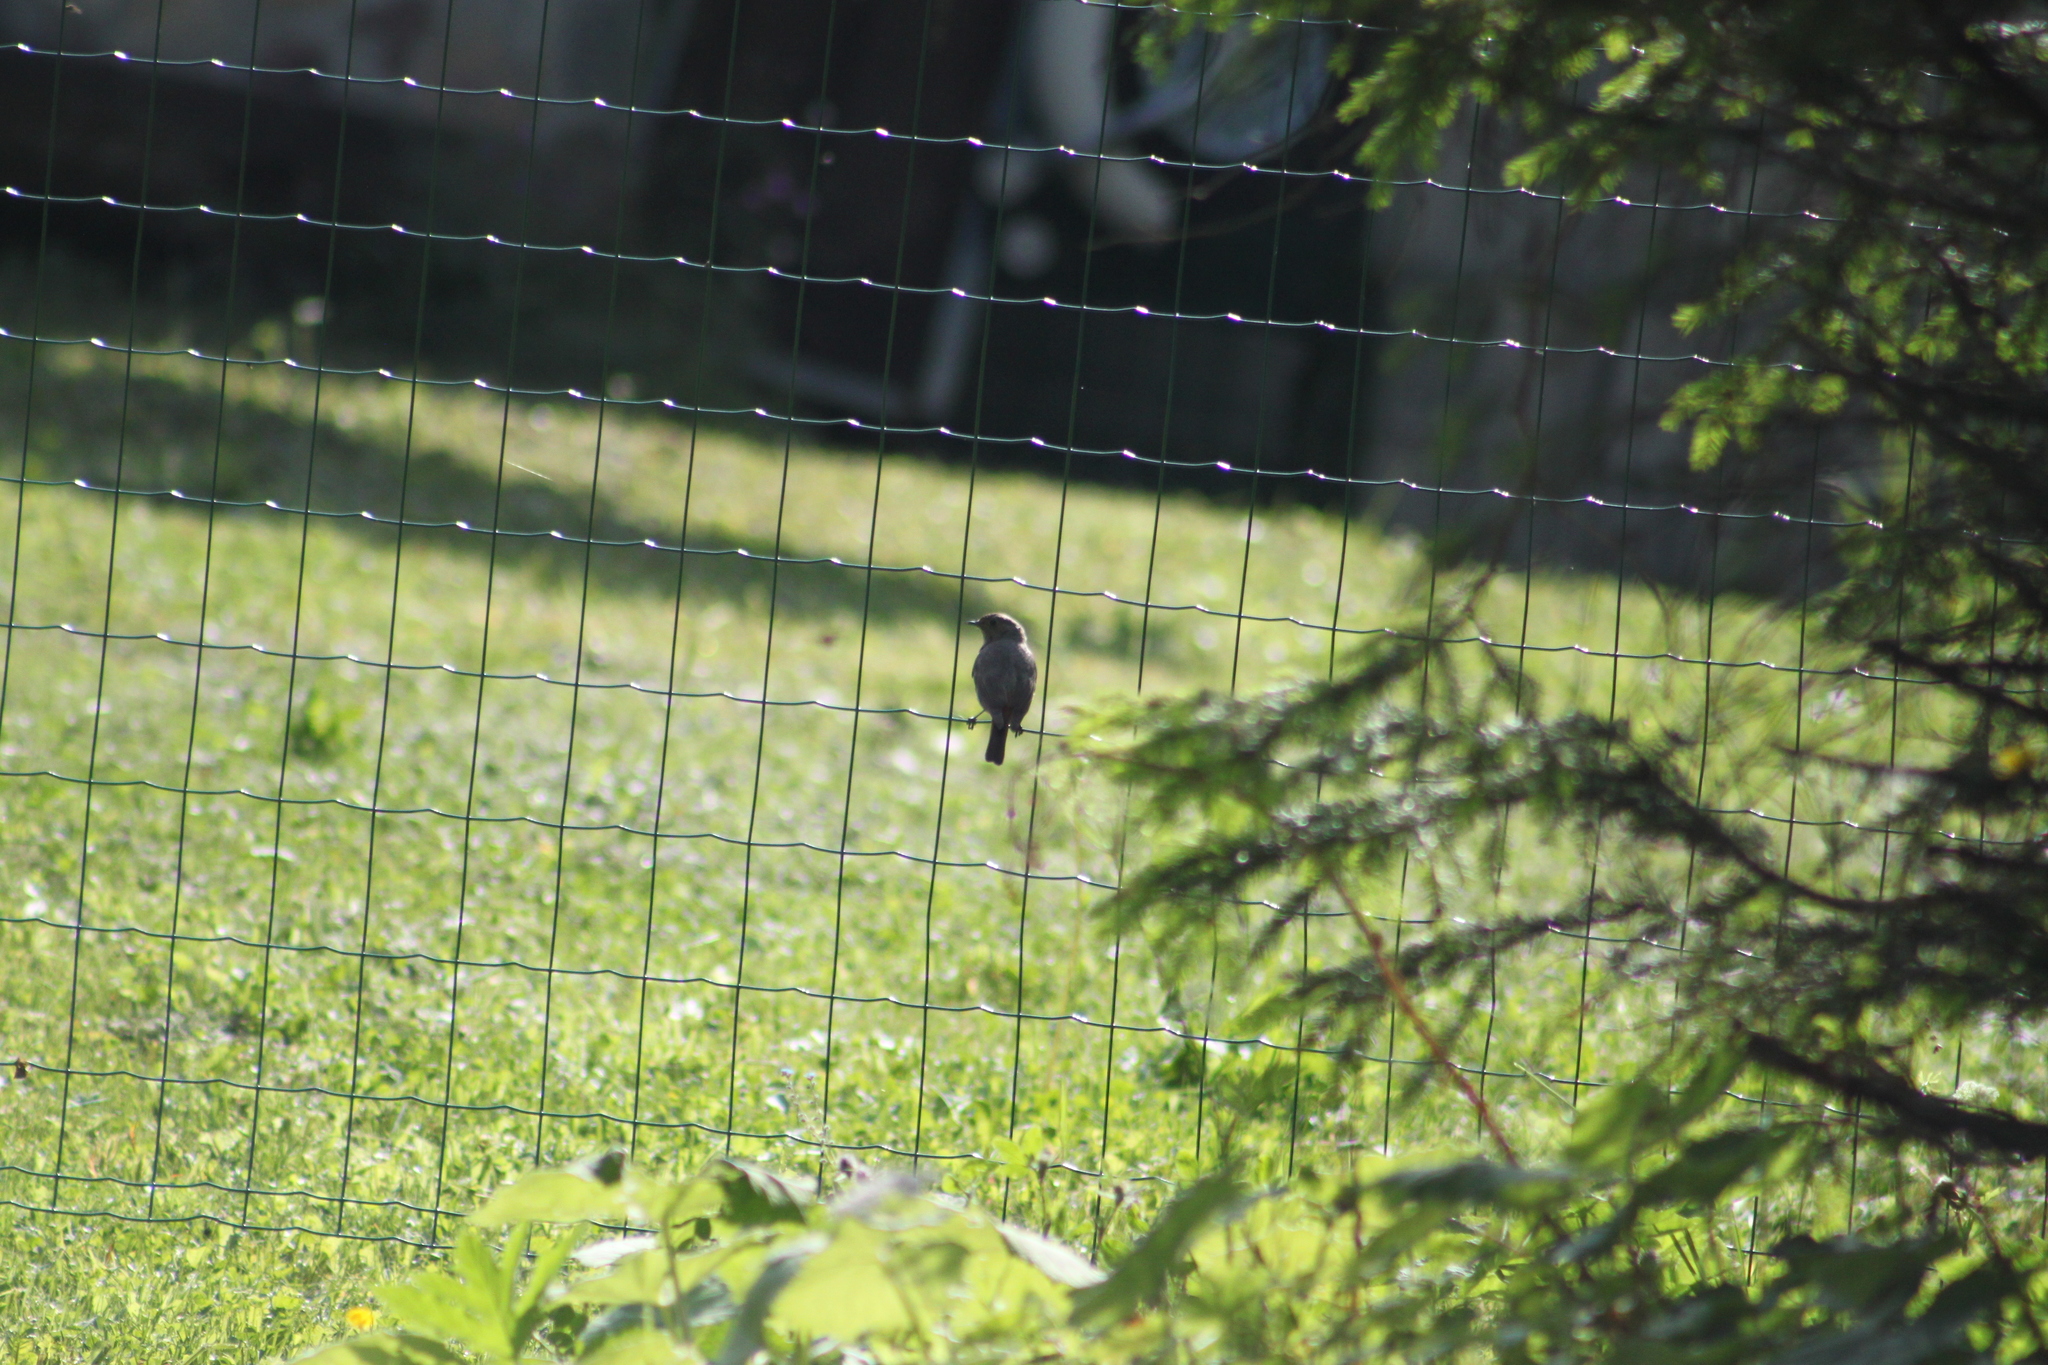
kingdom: Animalia
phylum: Chordata
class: Aves
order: Passeriformes
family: Muscicapidae
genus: Phoenicurus
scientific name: Phoenicurus ochruros
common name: Black redstart
